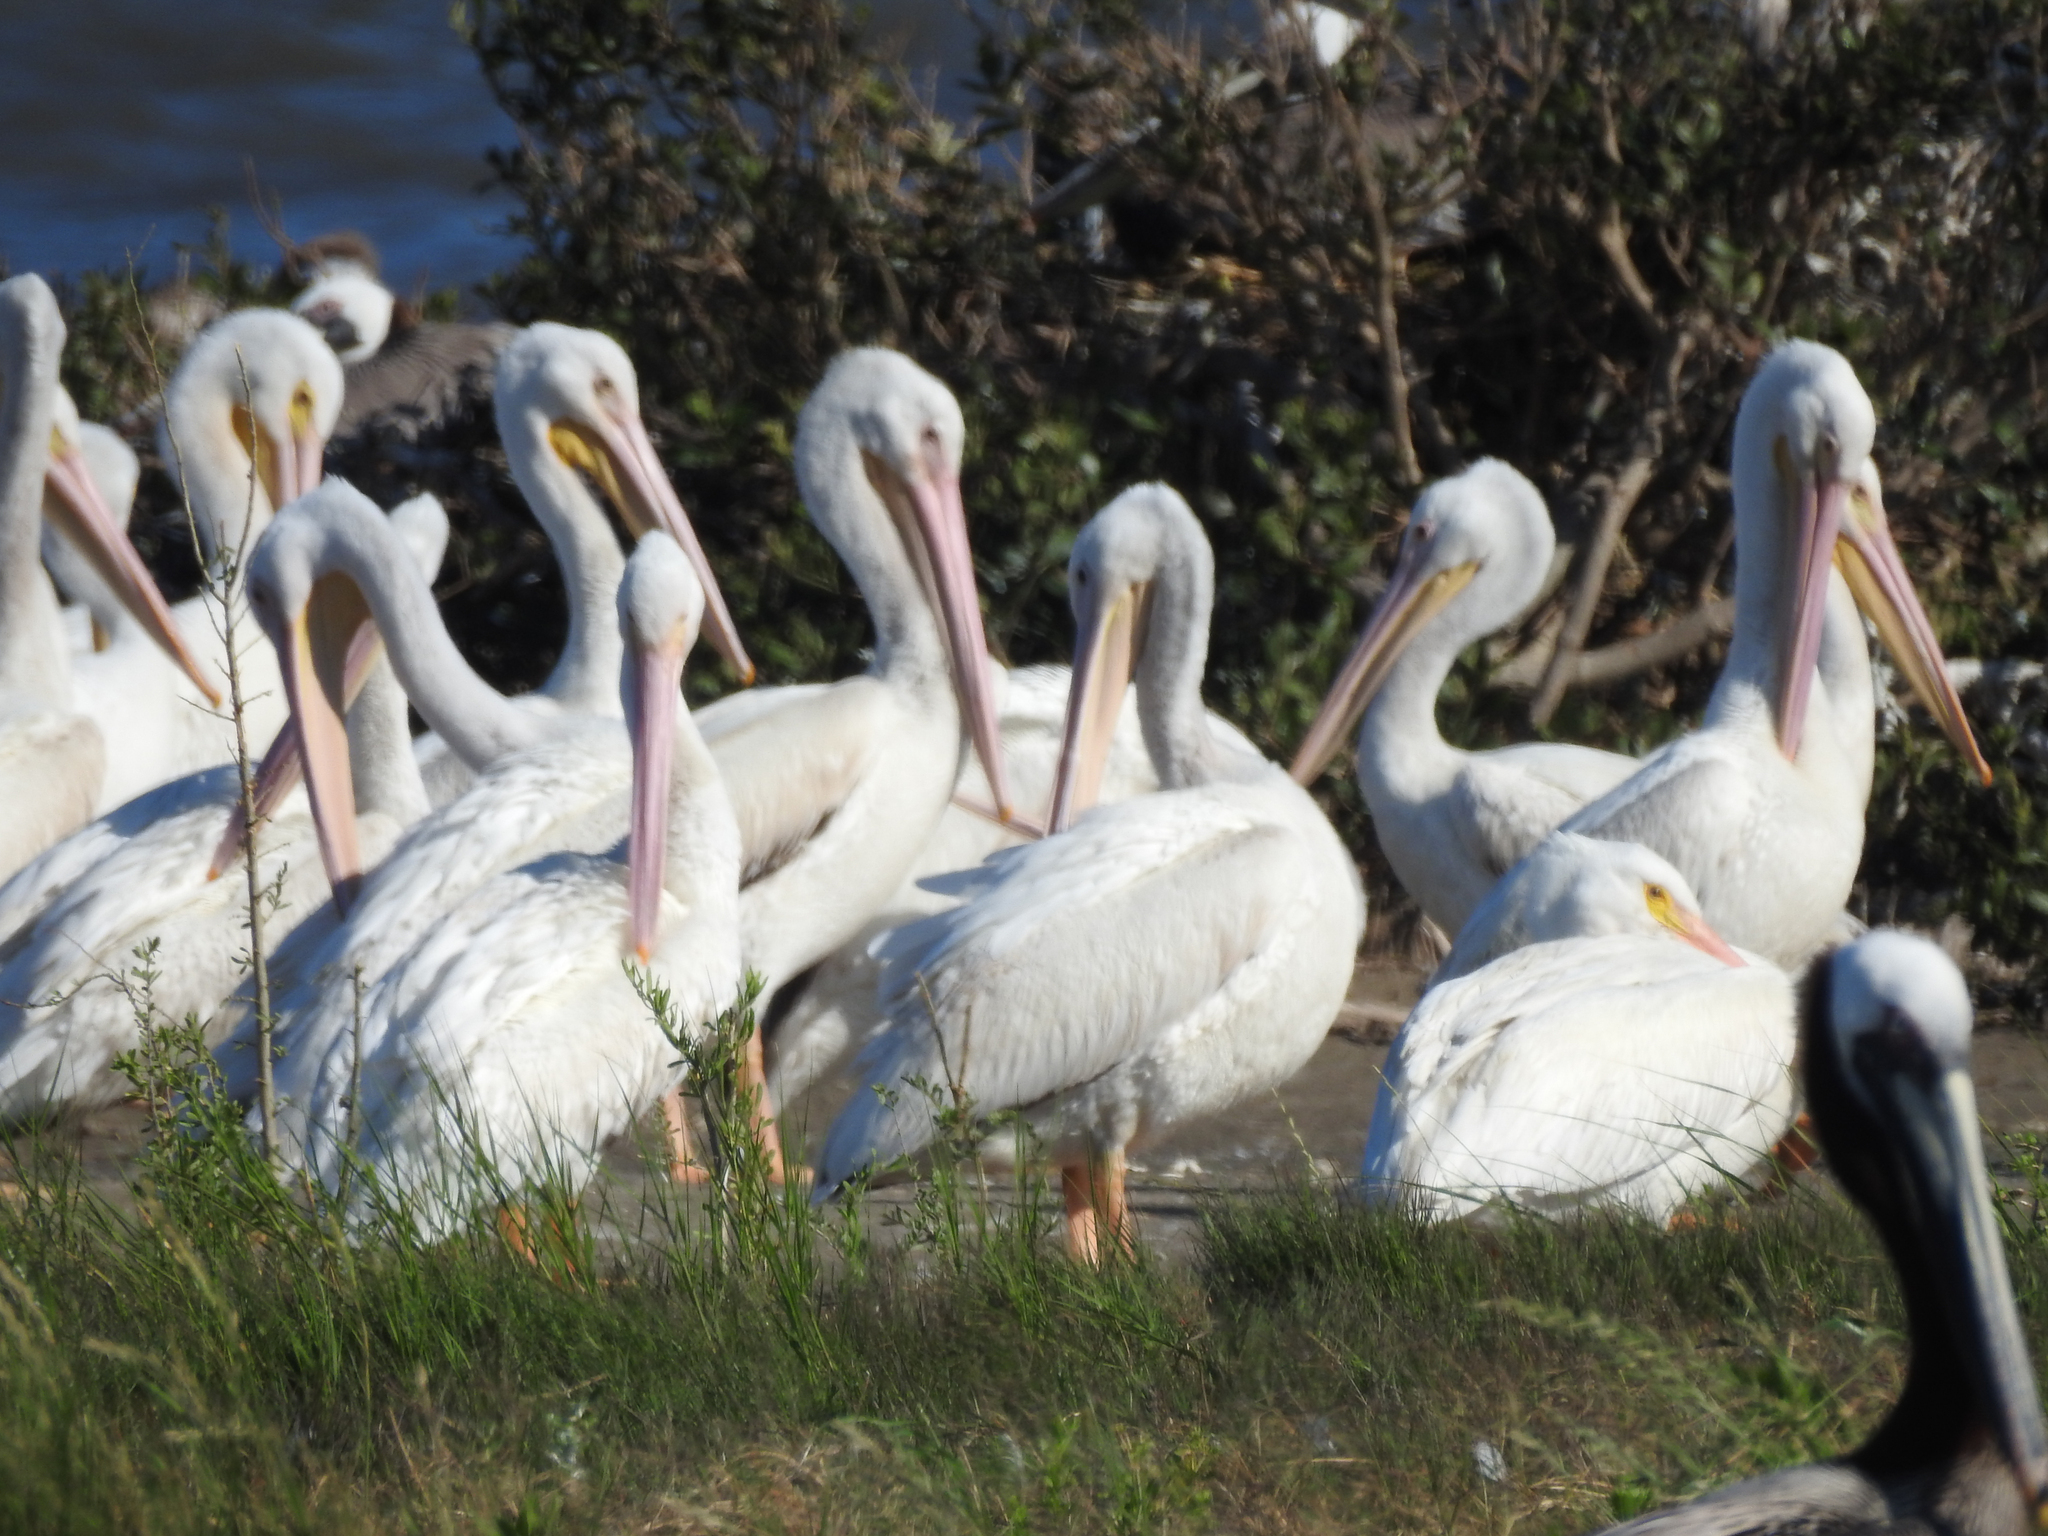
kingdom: Animalia
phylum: Chordata
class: Aves
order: Pelecaniformes
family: Pelecanidae
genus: Pelecanus
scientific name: Pelecanus erythrorhynchos
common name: American white pelican
